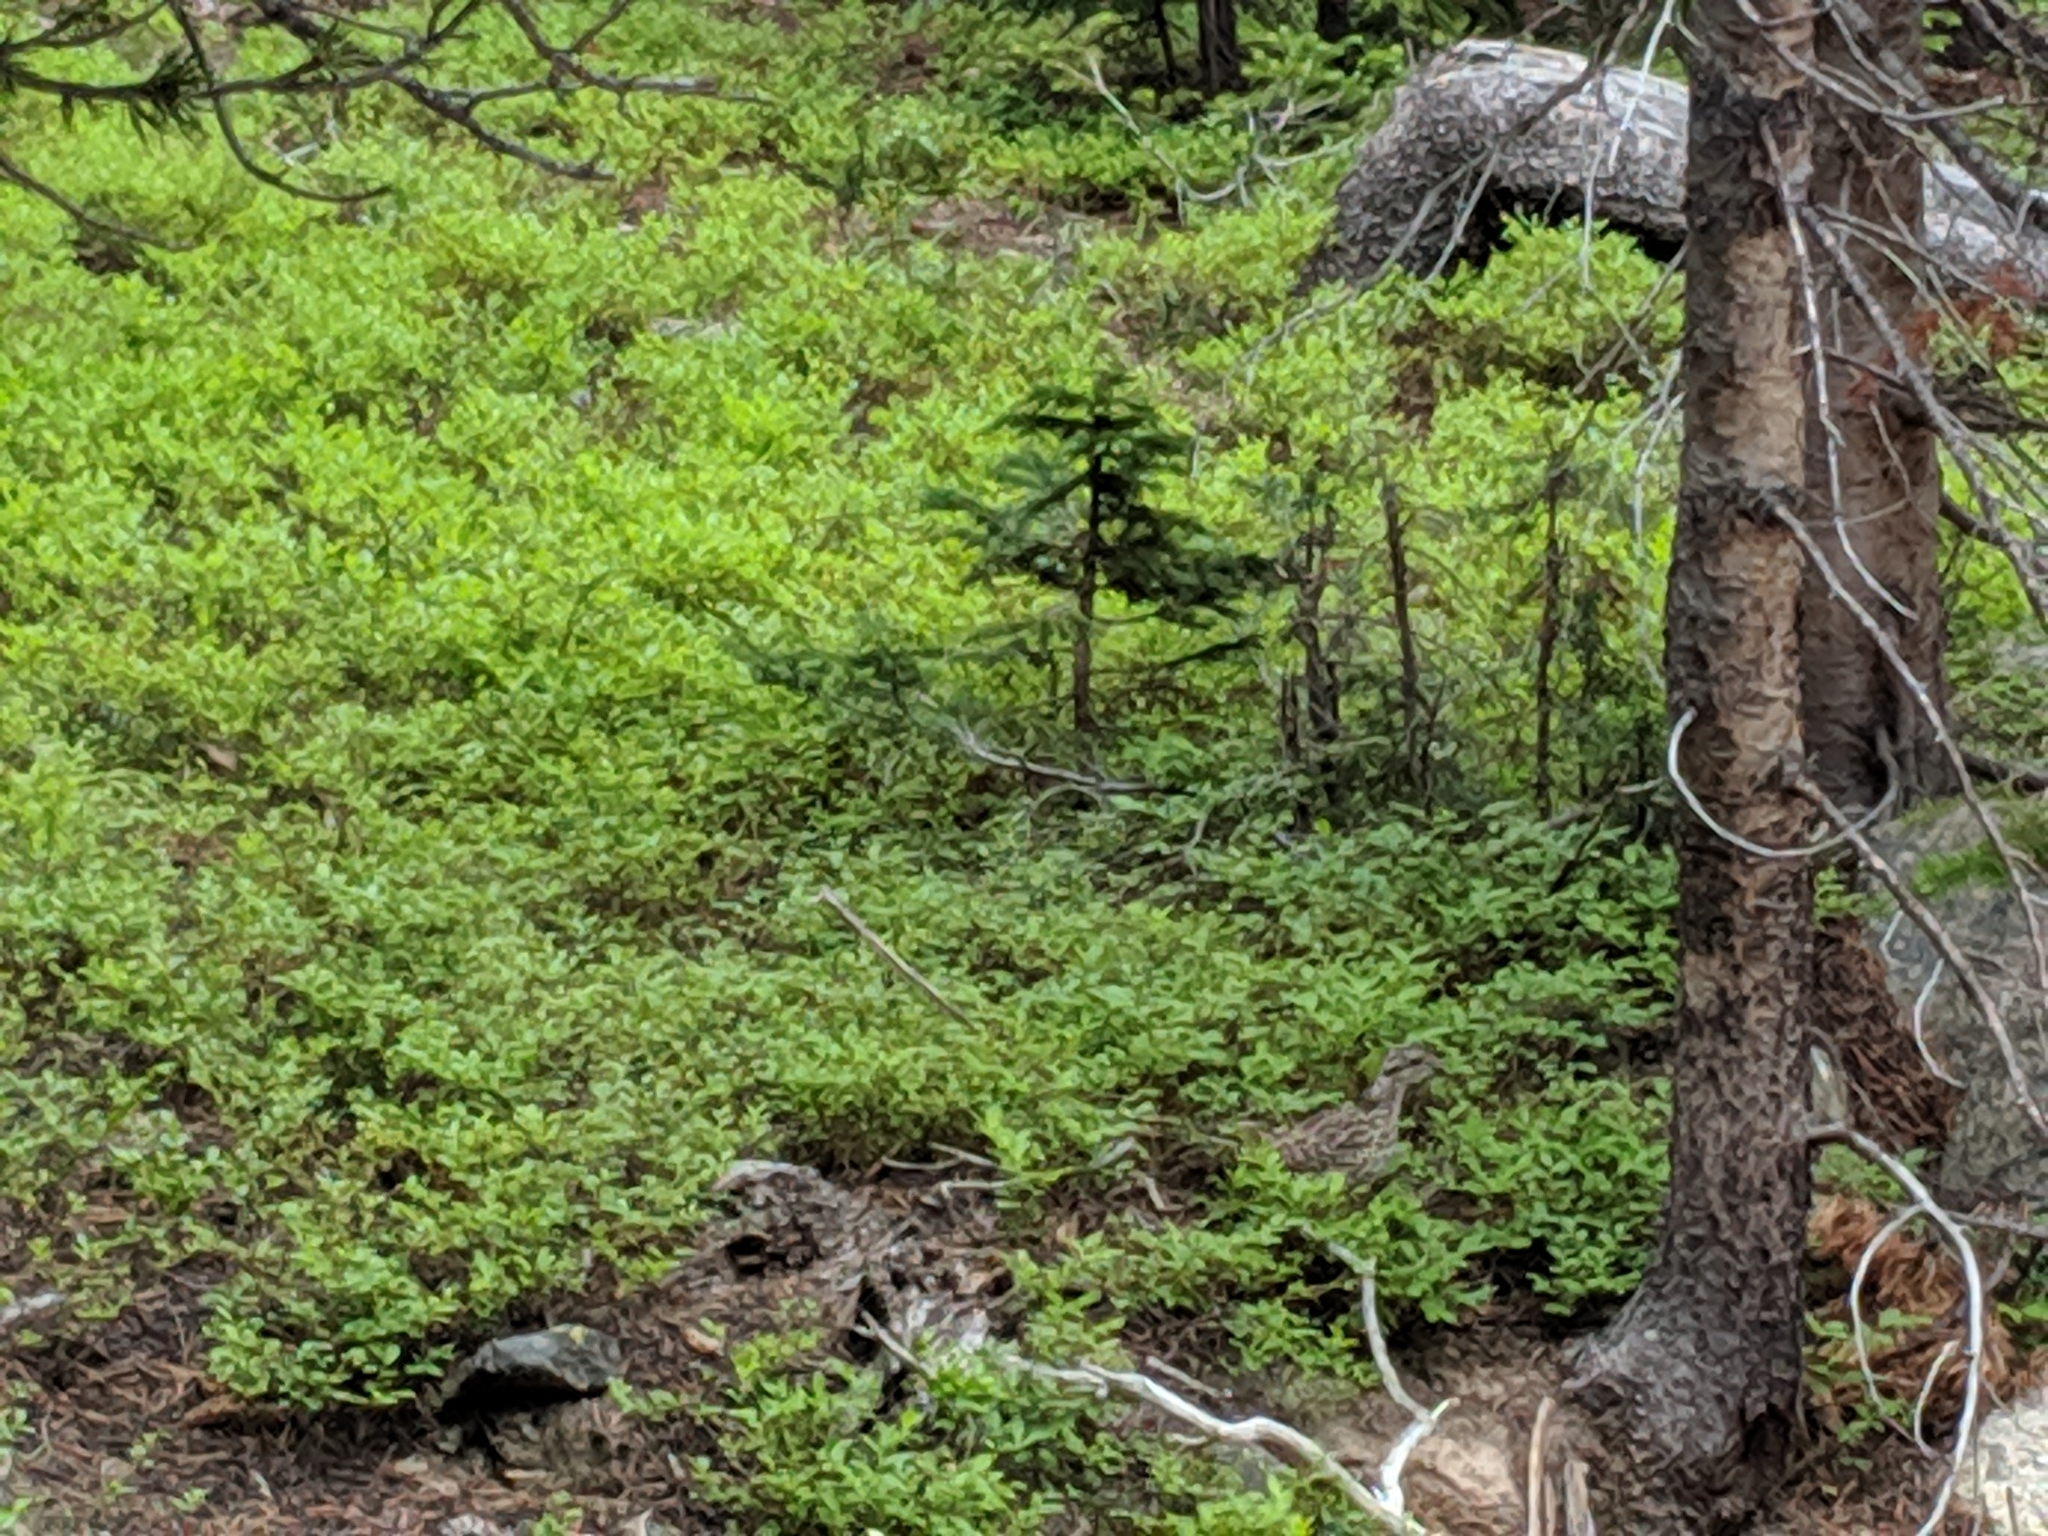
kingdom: Animalia
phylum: Chordata
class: Aves
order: Galliformes
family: Phasianidae
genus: Dendragapus
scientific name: Dendragapus obscurus
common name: Dusky grouse
